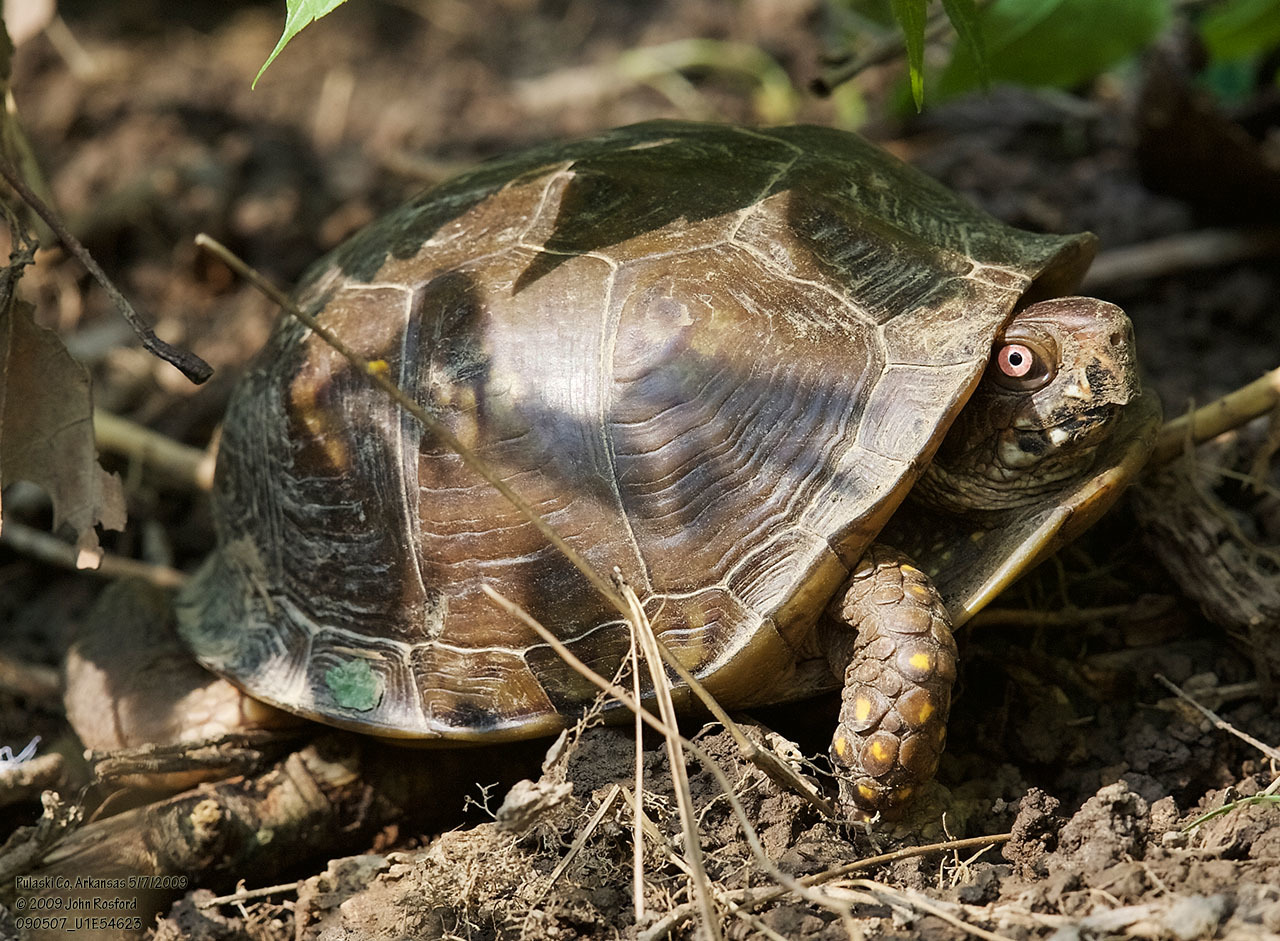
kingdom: Animalia
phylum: Chordata
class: Testudines
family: Emydidae
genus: Terrapene
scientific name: Terrapene carolina
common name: Common box turtle
